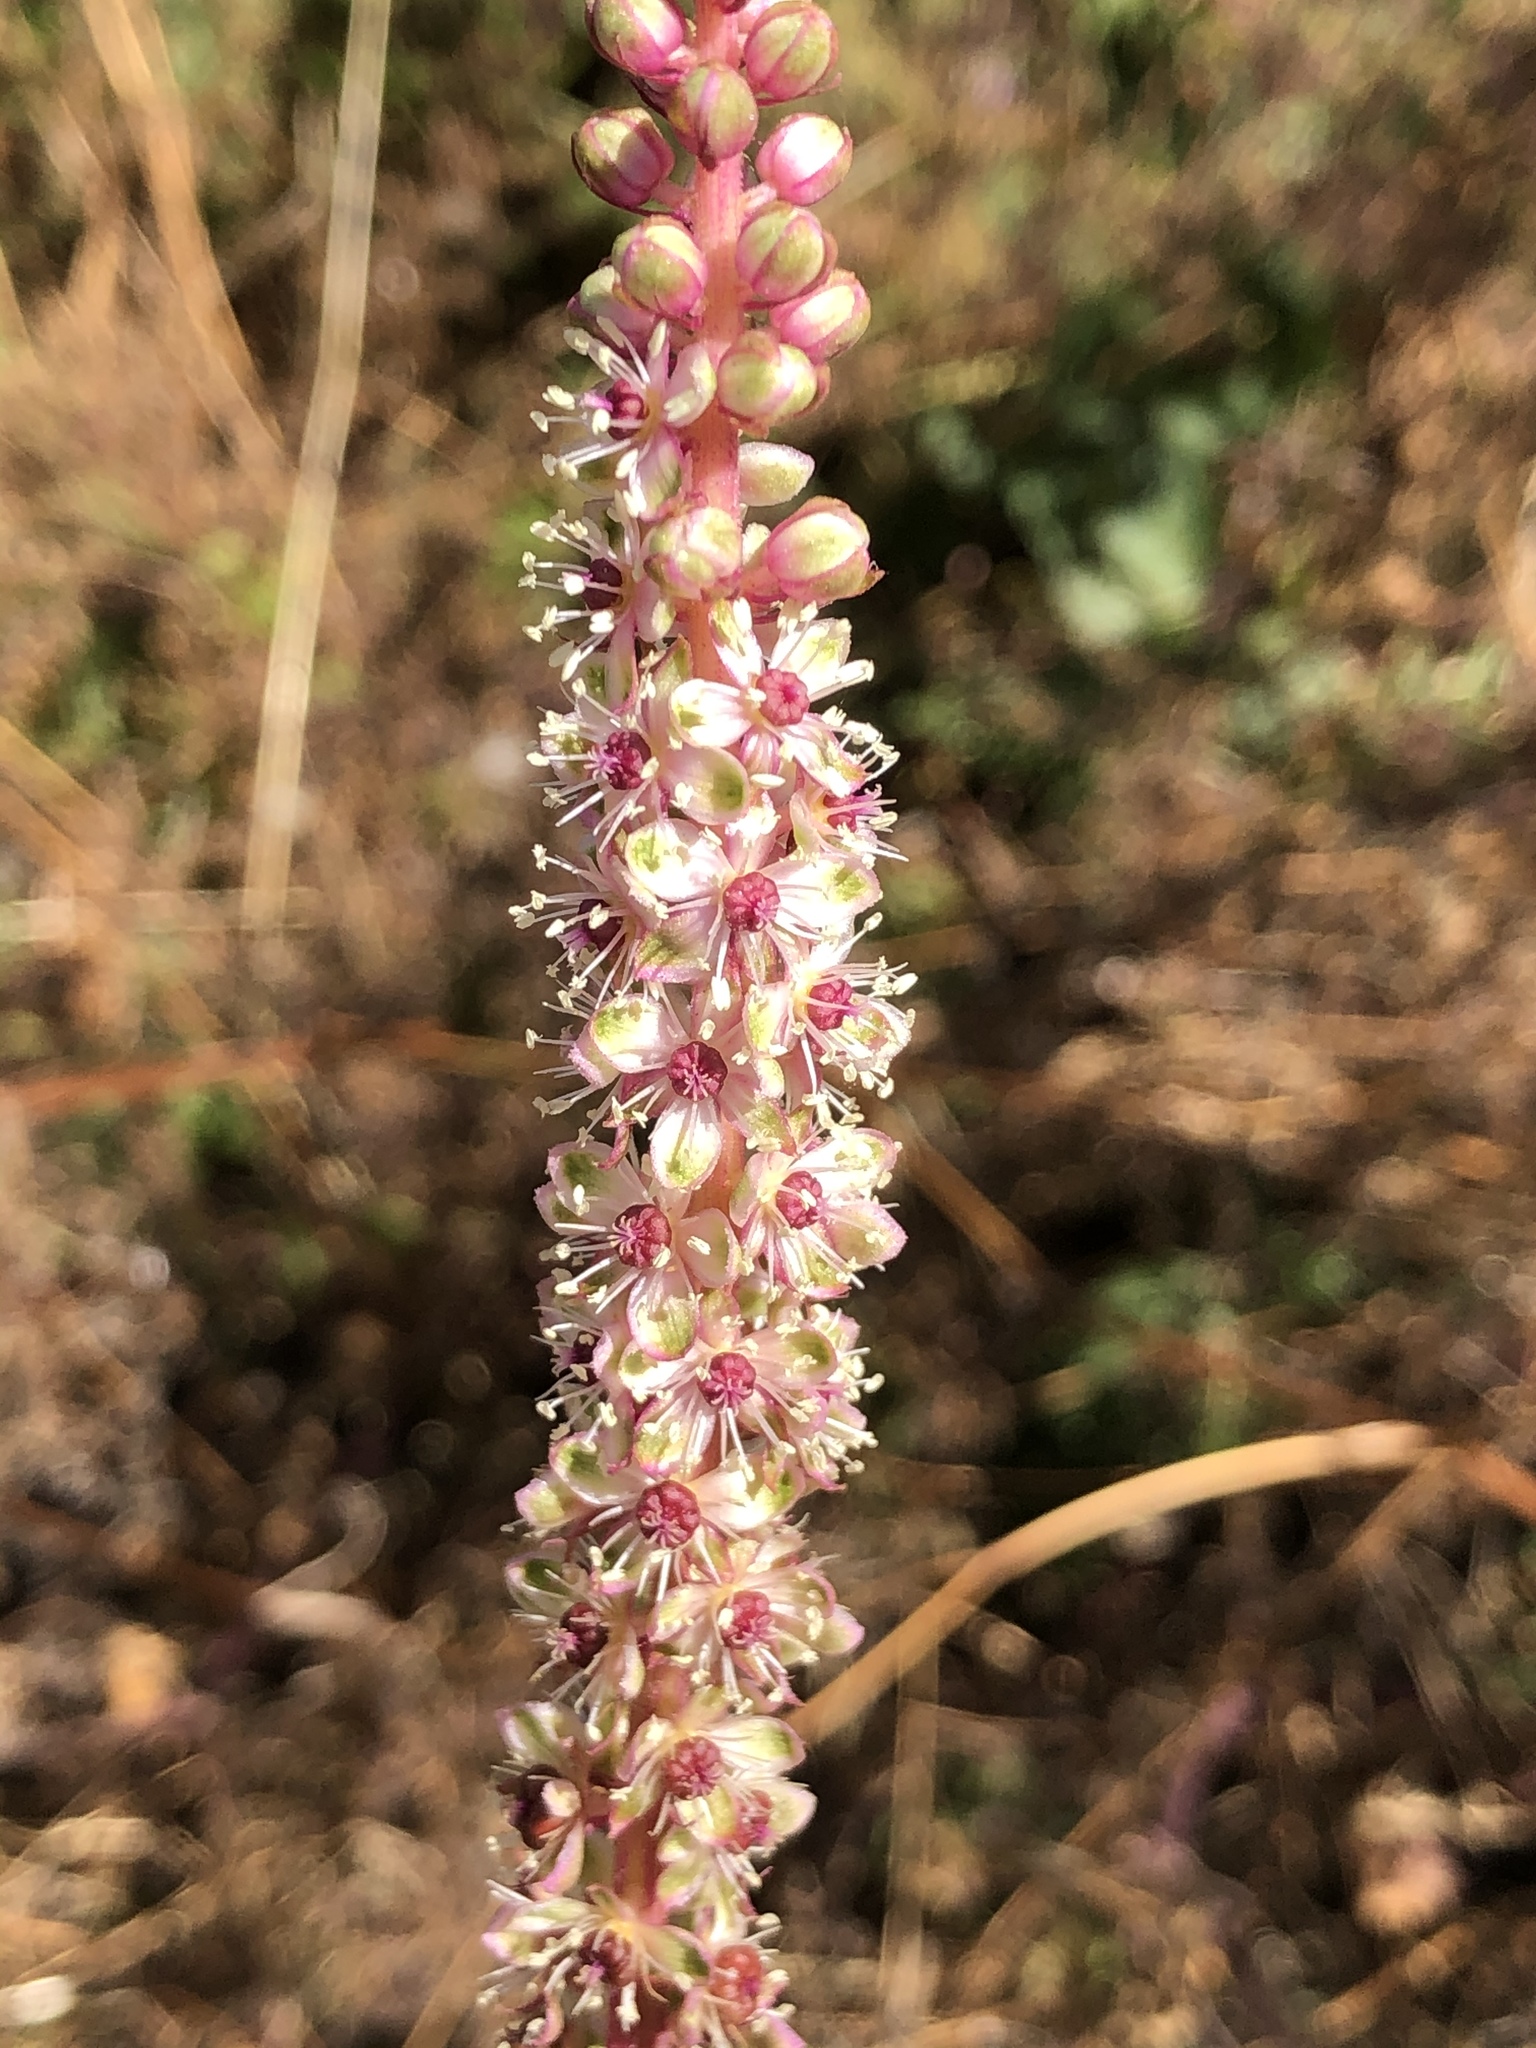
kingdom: Plantae
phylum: Tracheophyta
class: Magnoliopsida
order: Caryophyllales
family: Phytolaccaceae
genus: Phytolacca
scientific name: Phytolacca icosandra
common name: Button pokeweed
